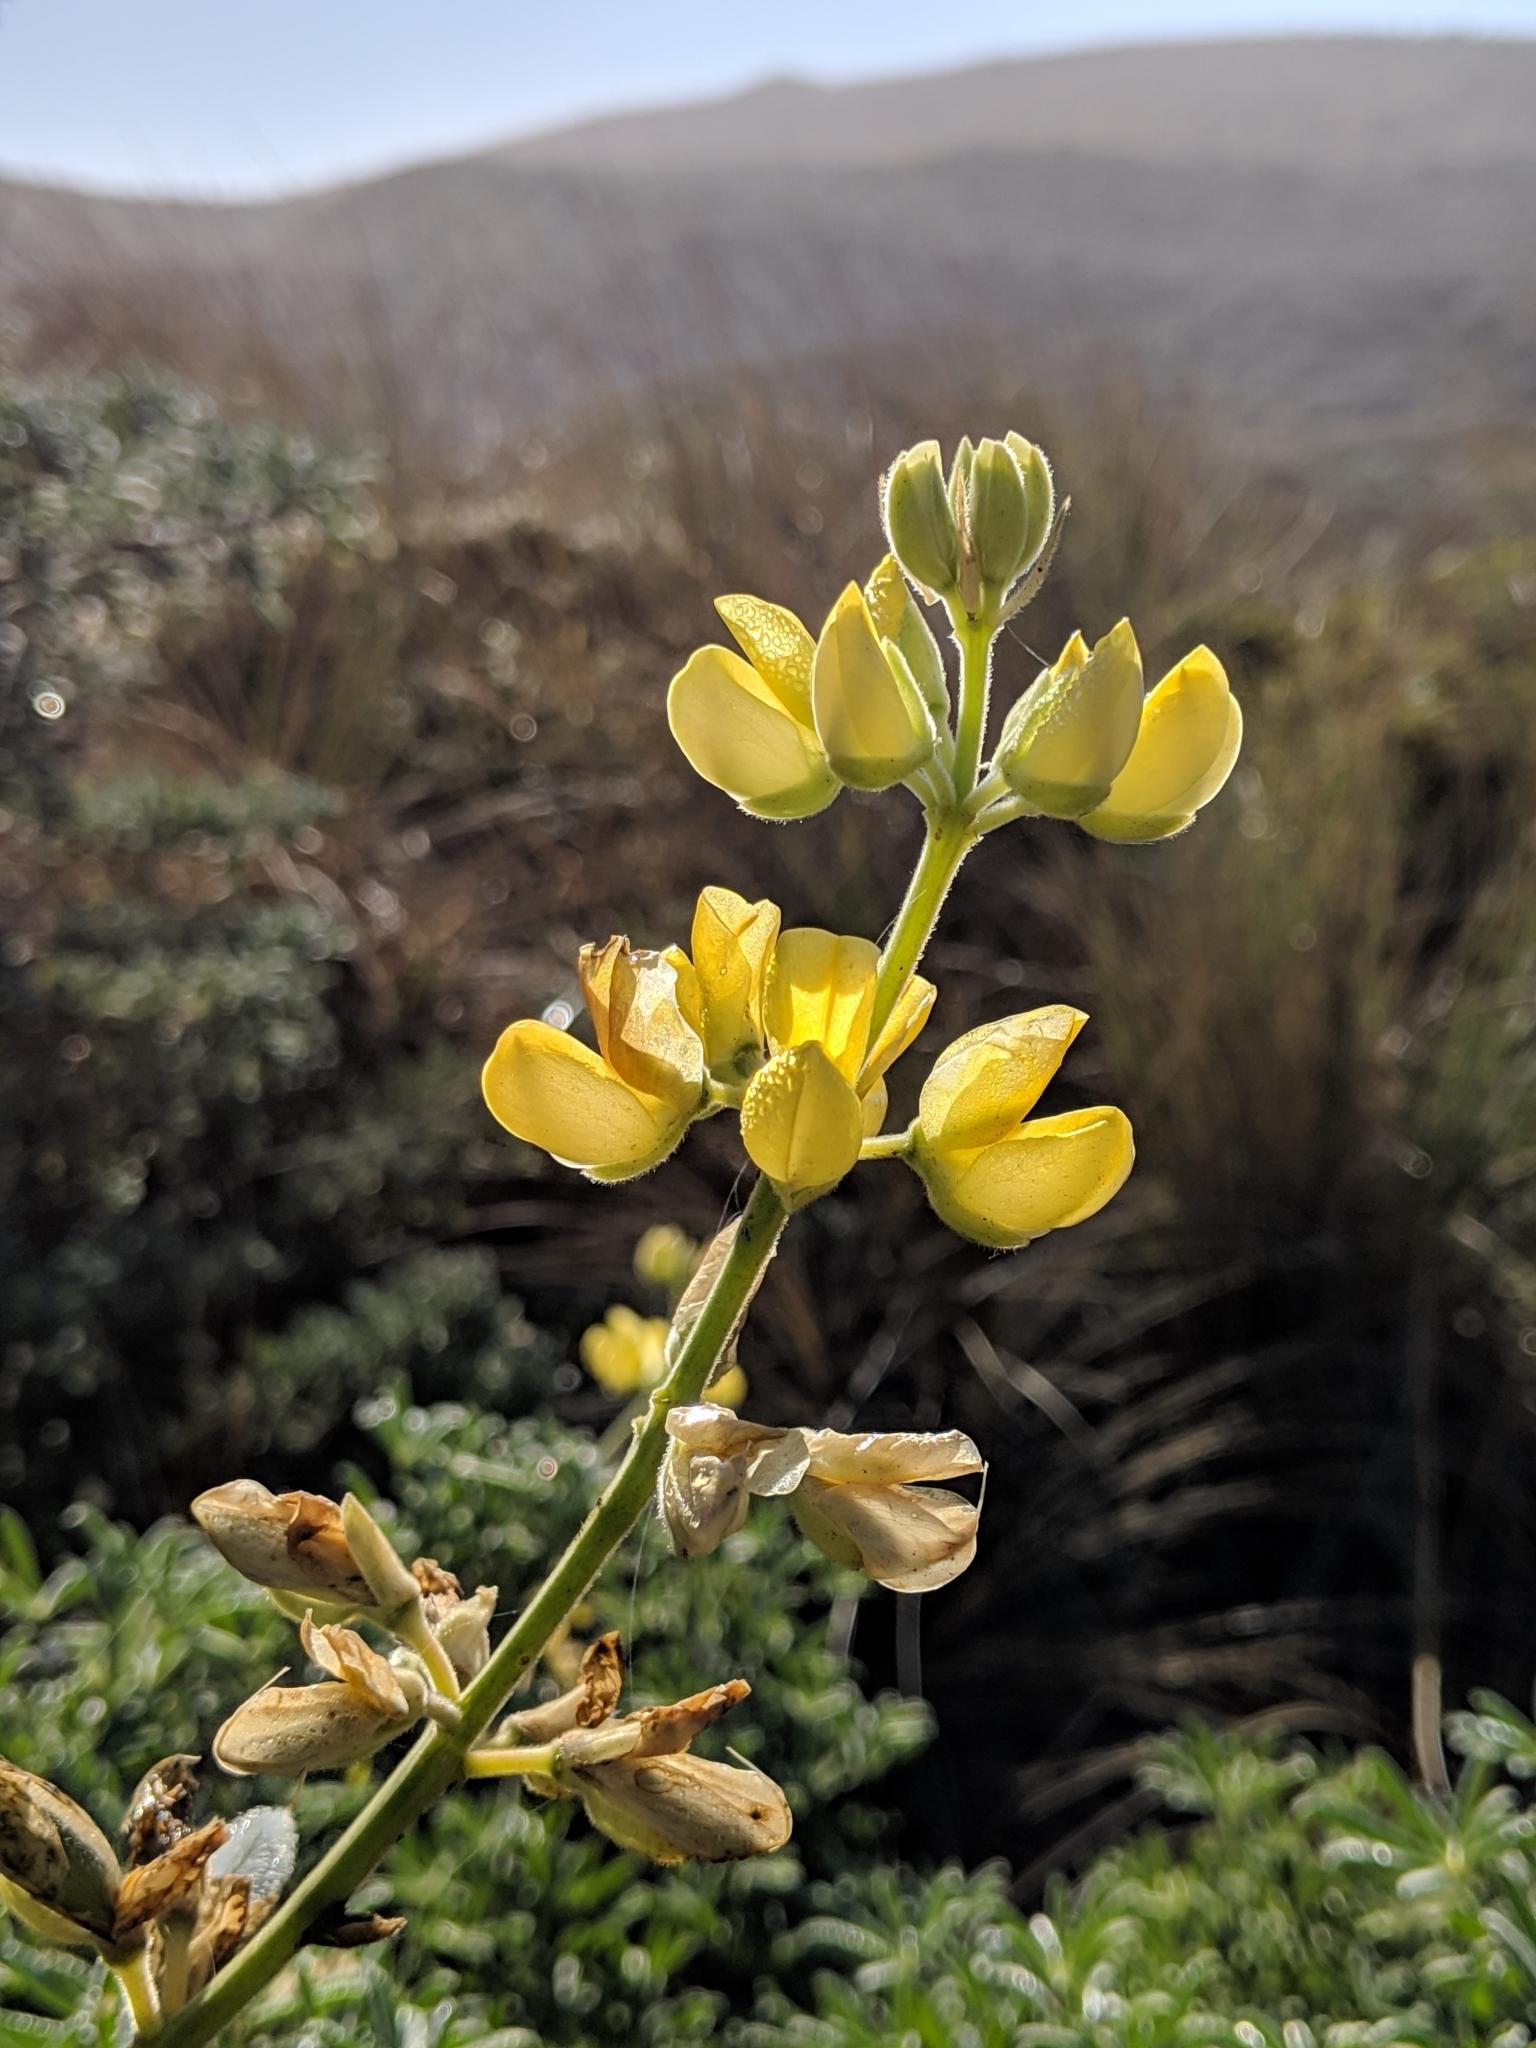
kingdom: Plantae
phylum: Tracheophyta
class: Magnoliopsida
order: Fabales
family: Fabaceae
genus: Lupinus
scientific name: Lupinus arboreus
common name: Yellow bush lupine
